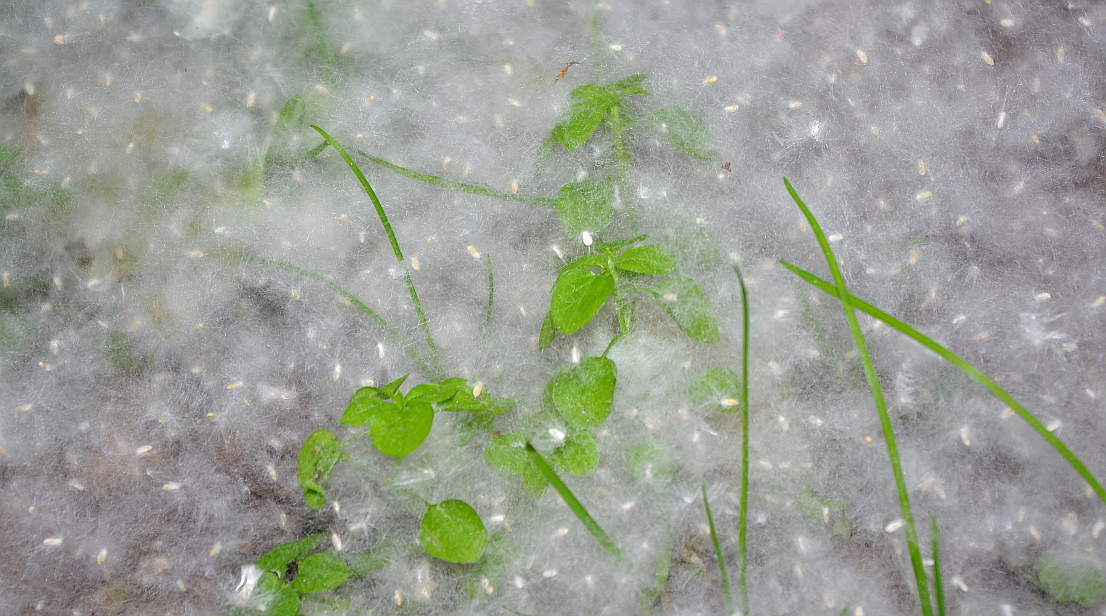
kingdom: Plantae
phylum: Tracheophyta
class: Magnoliopsida
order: Caryophyllales
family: Caryophyllaceae
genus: Stellaria
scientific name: Stellaria media
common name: Common chickweed
